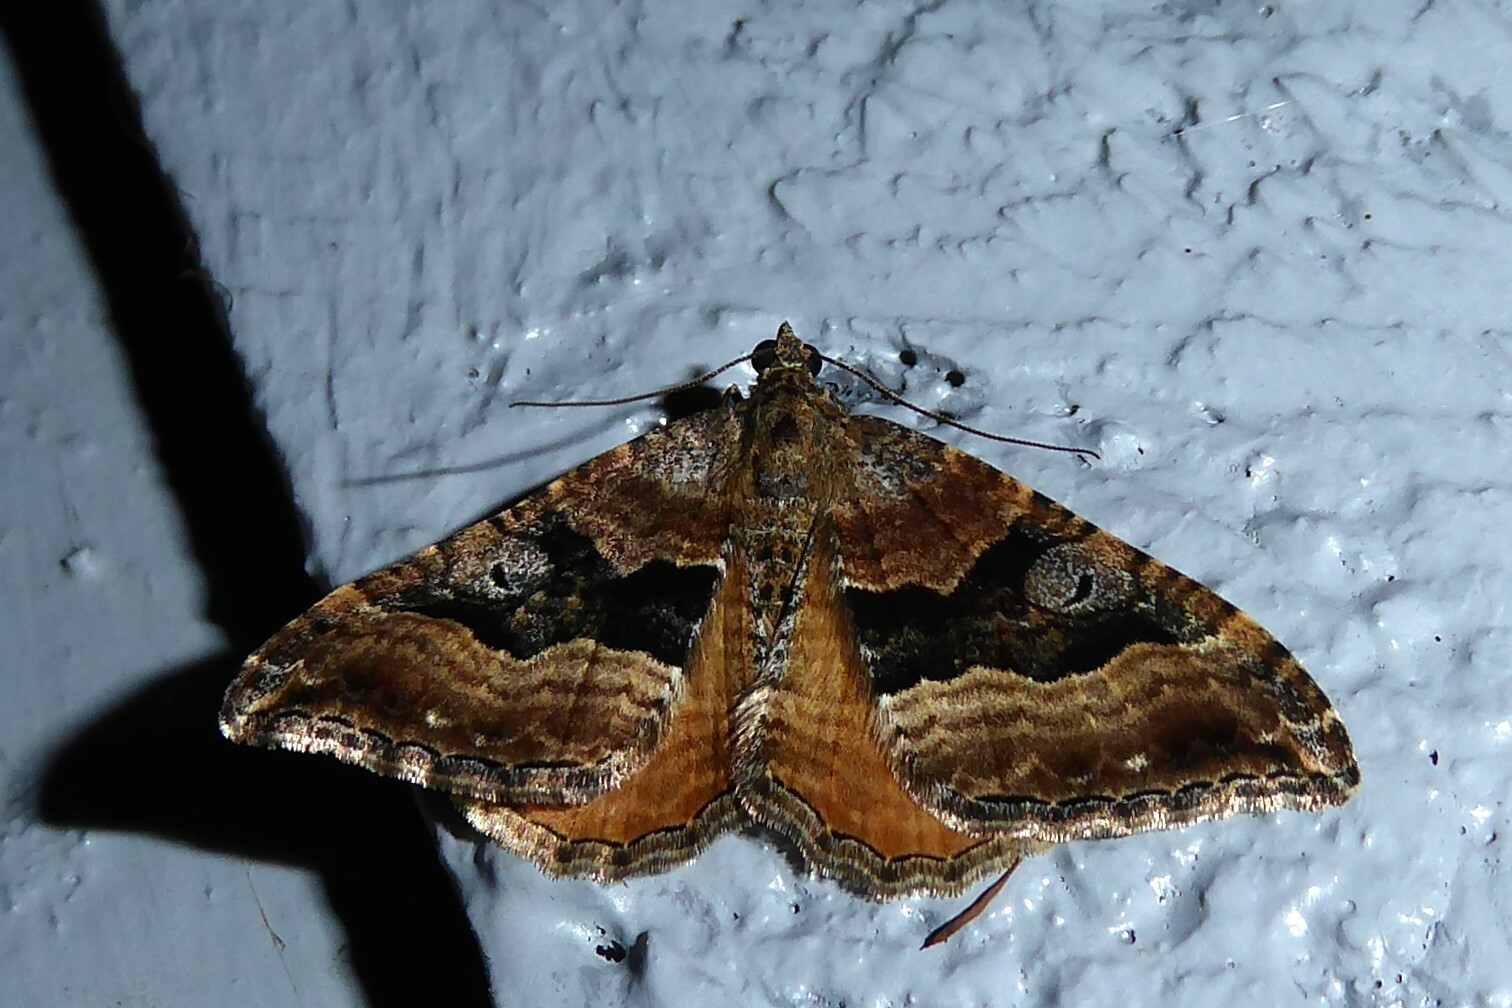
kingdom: Animalia
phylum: Arthropoda
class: Insecta
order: Lepidoptera
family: Geometridae
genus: Hydriomena
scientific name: Hydriomena deltoidata
